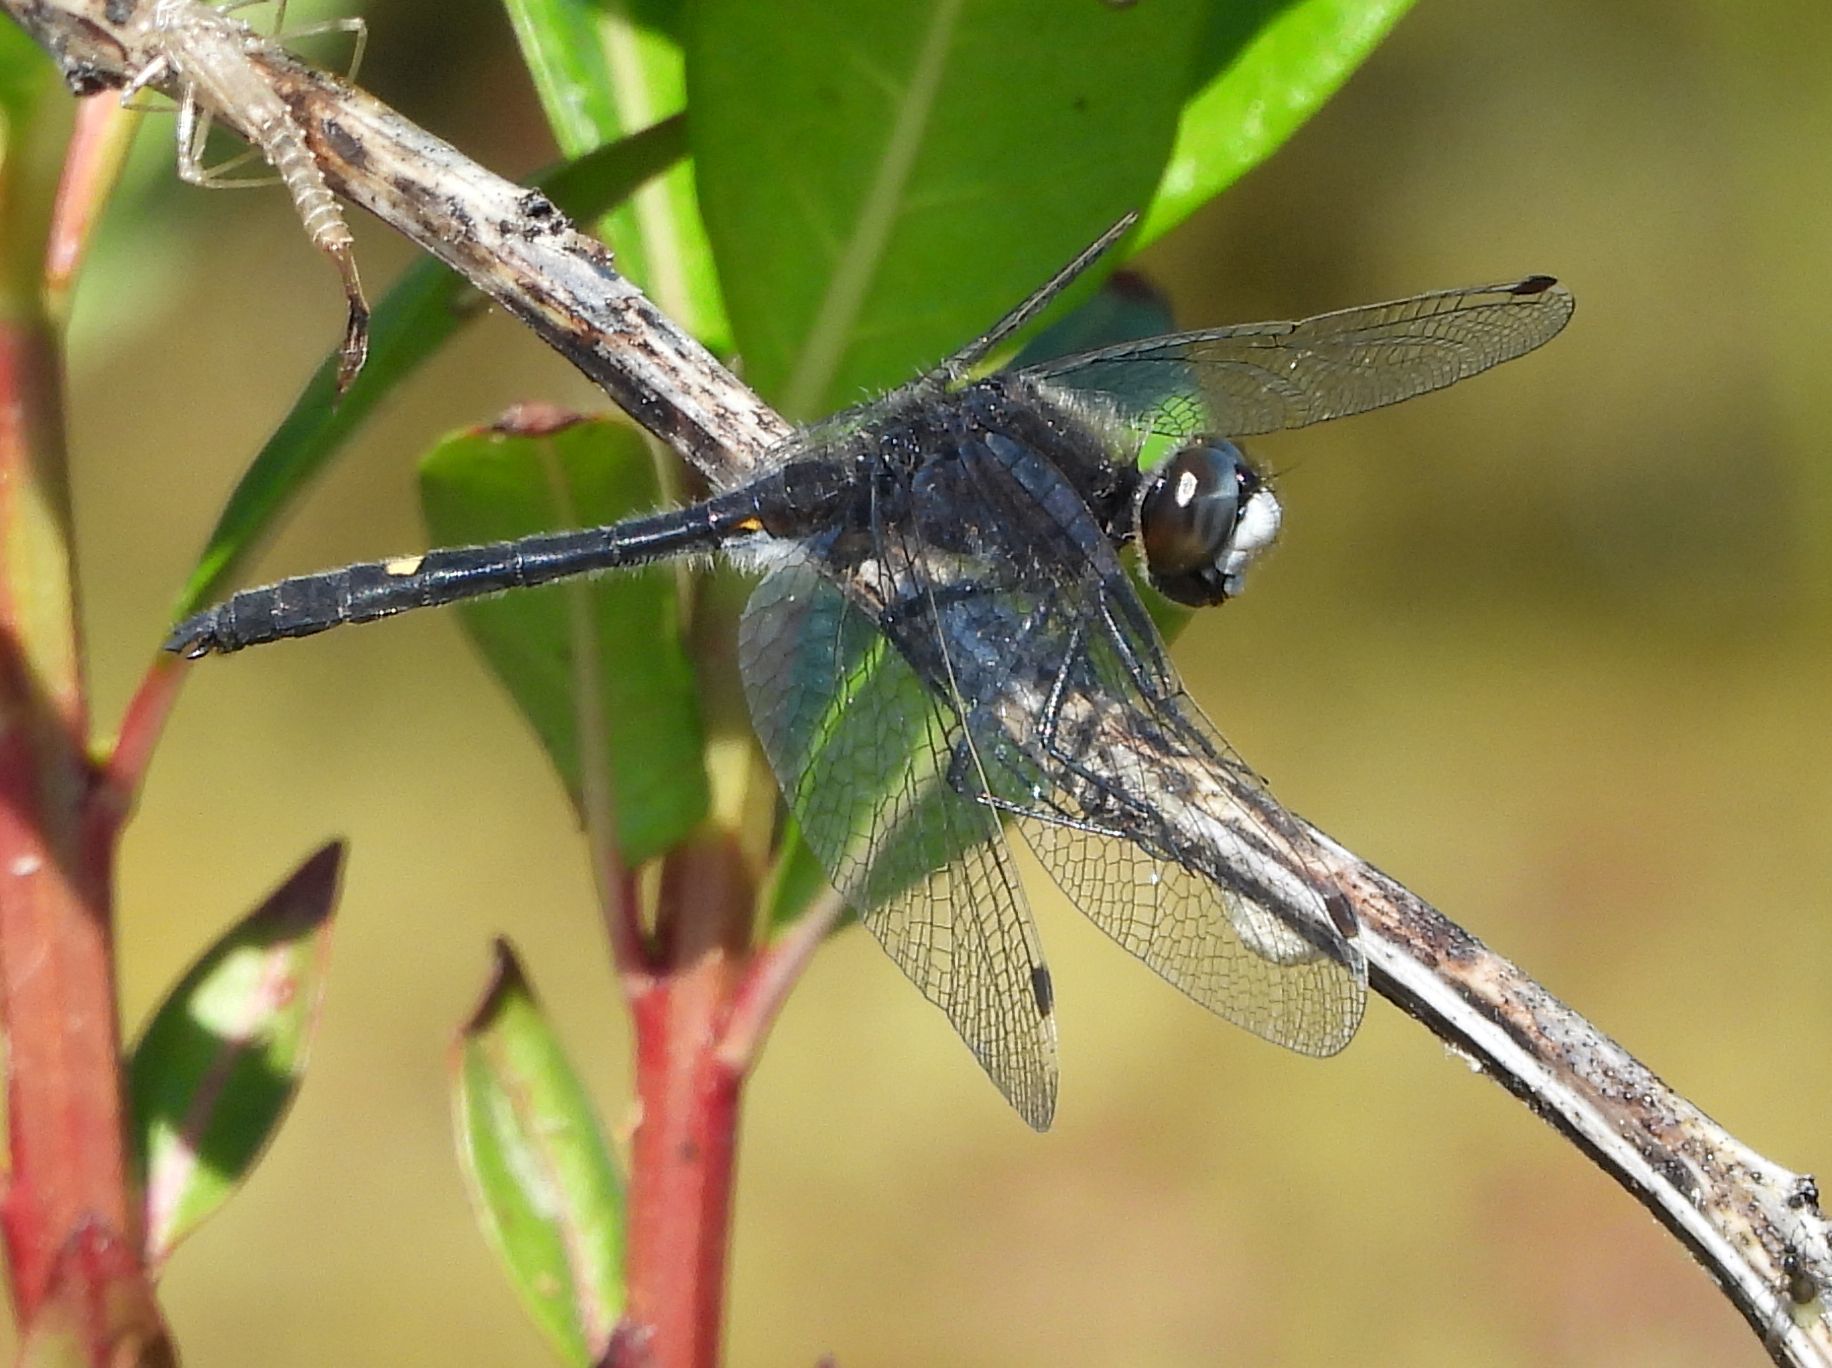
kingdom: Animalia
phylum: Arthropoda
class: Insecta
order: Odonata
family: Libellulidae
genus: Leucorrhinia
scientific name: Leucorrhinia intacta
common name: Dot-tailed whiteface
